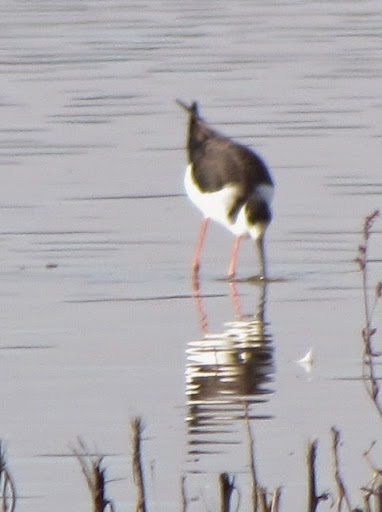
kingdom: Animalia
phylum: Chordata
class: Aves
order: Charadriiformes
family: Recurvirostridae
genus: Himantopus
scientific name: Himantopus mexicanus
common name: Black-necked stilt
